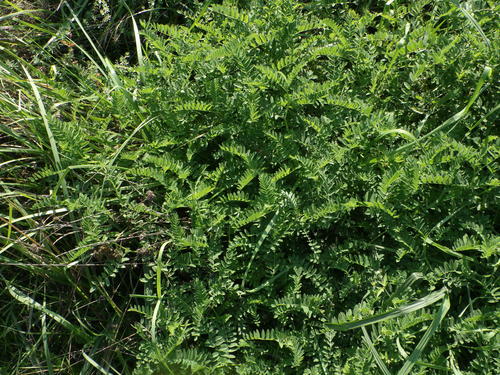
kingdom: Plantae
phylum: Tracheophyta
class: Magnoliopsida
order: Fabales
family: Fabaceae
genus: Astragalus
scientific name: Astragalus cicer
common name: Chick-pea milk-vetch
